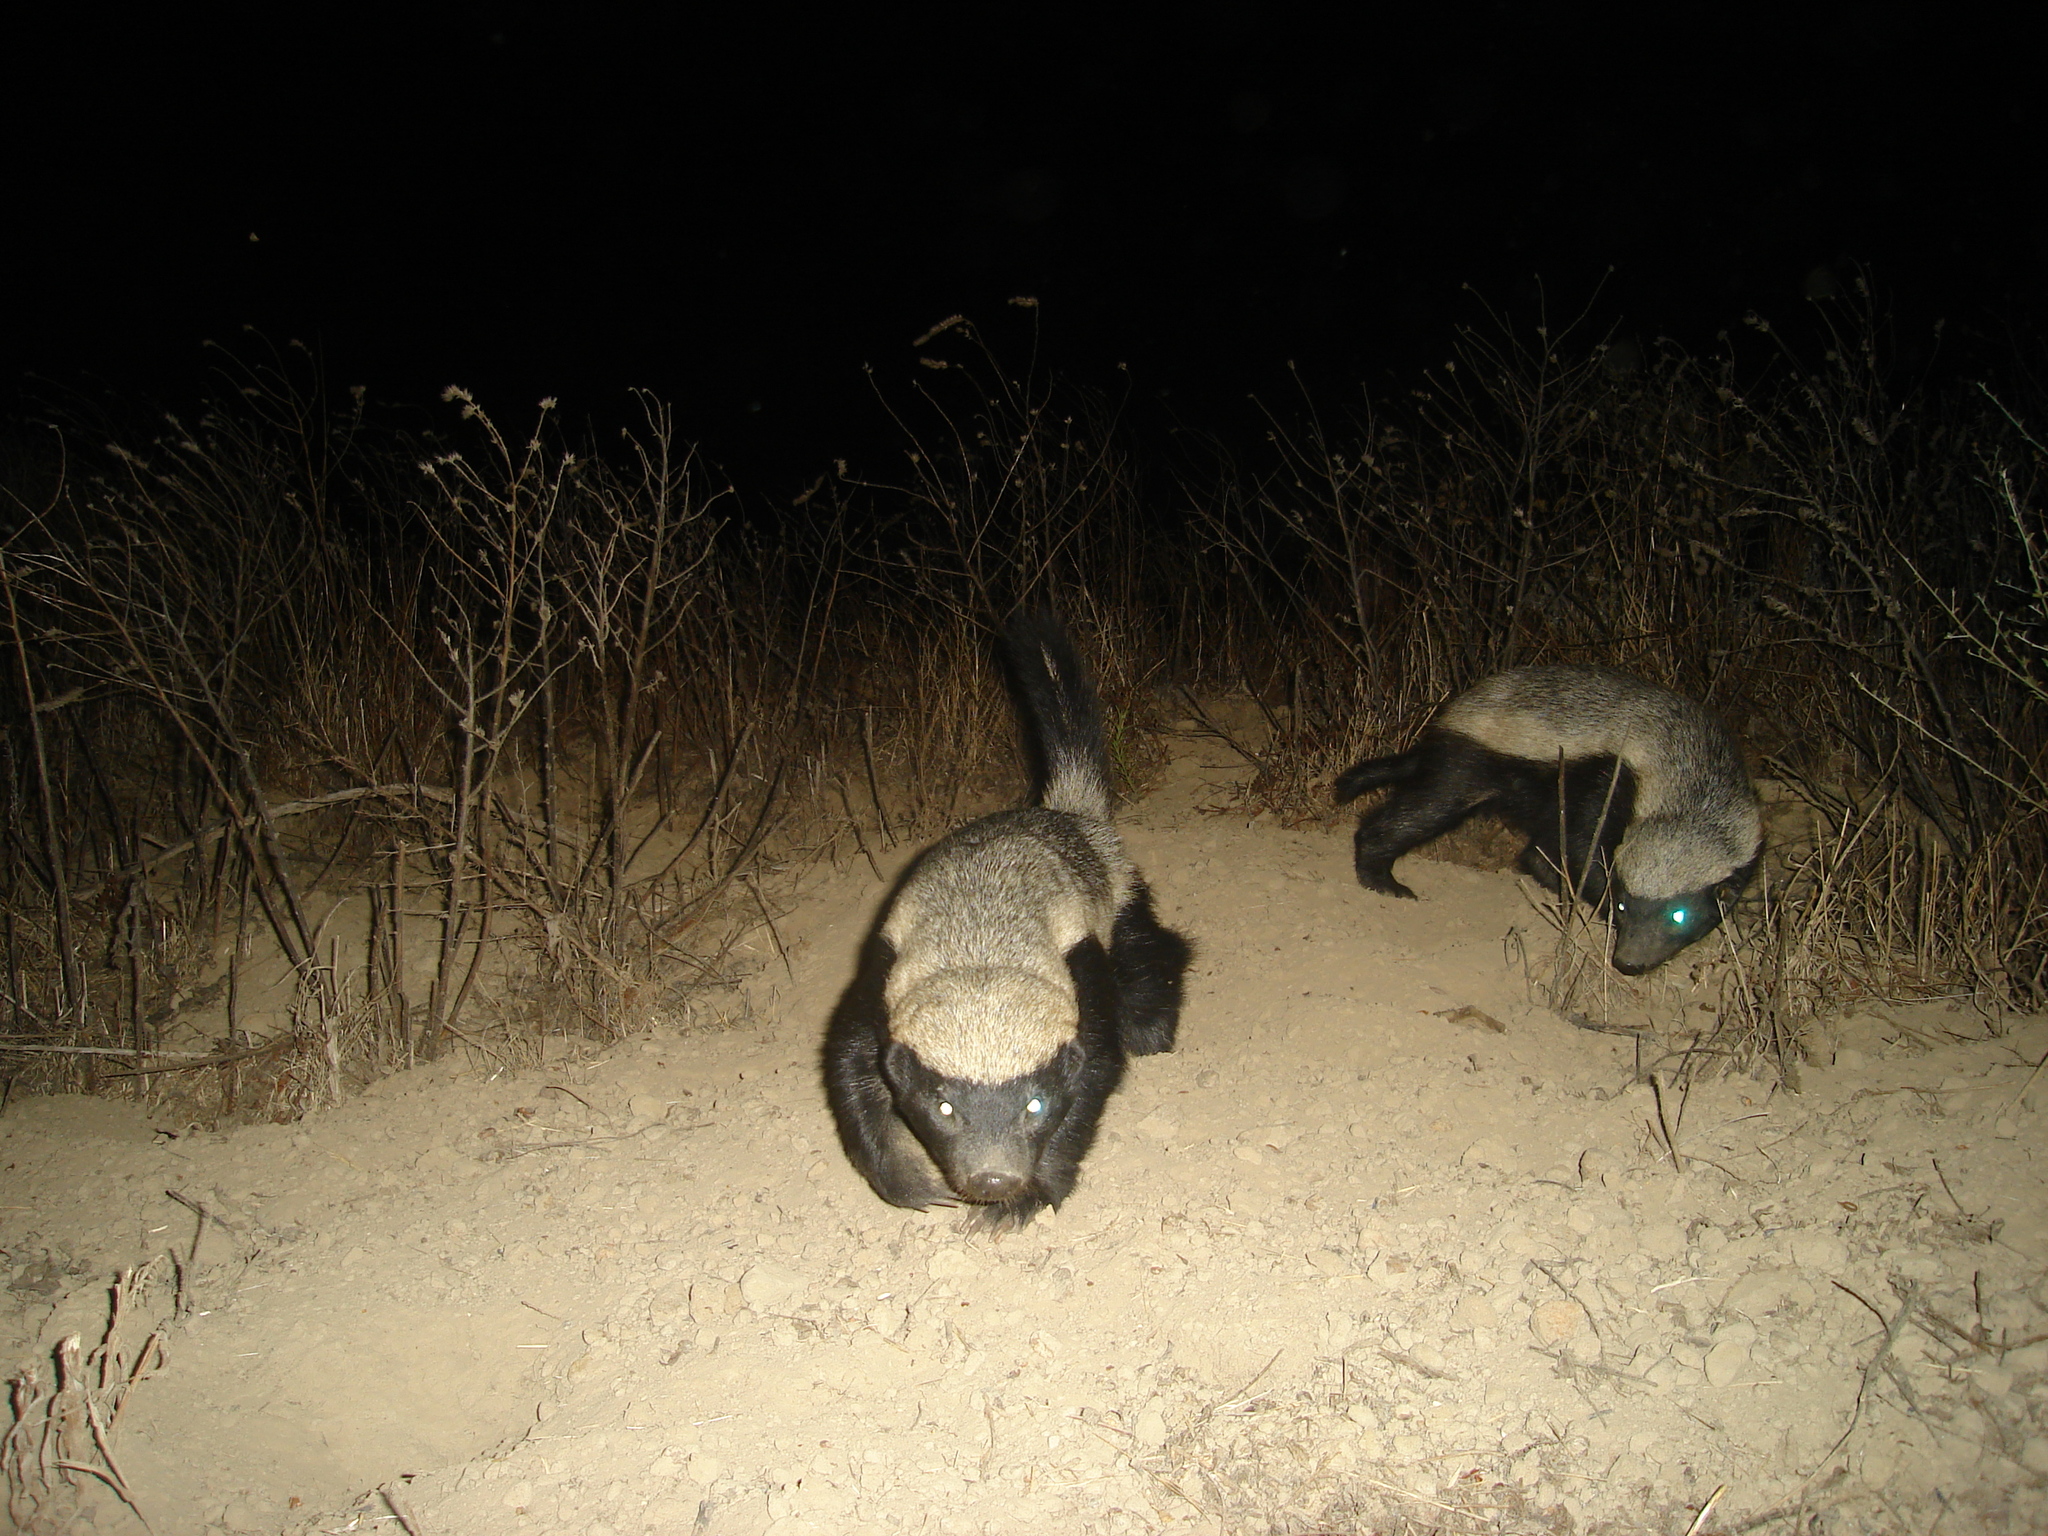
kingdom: Animalia
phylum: Chordata
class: Mammalia
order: Carnivora
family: Mustelidae
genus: Mellivora
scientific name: Mellivora capensis
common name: Honey badger
